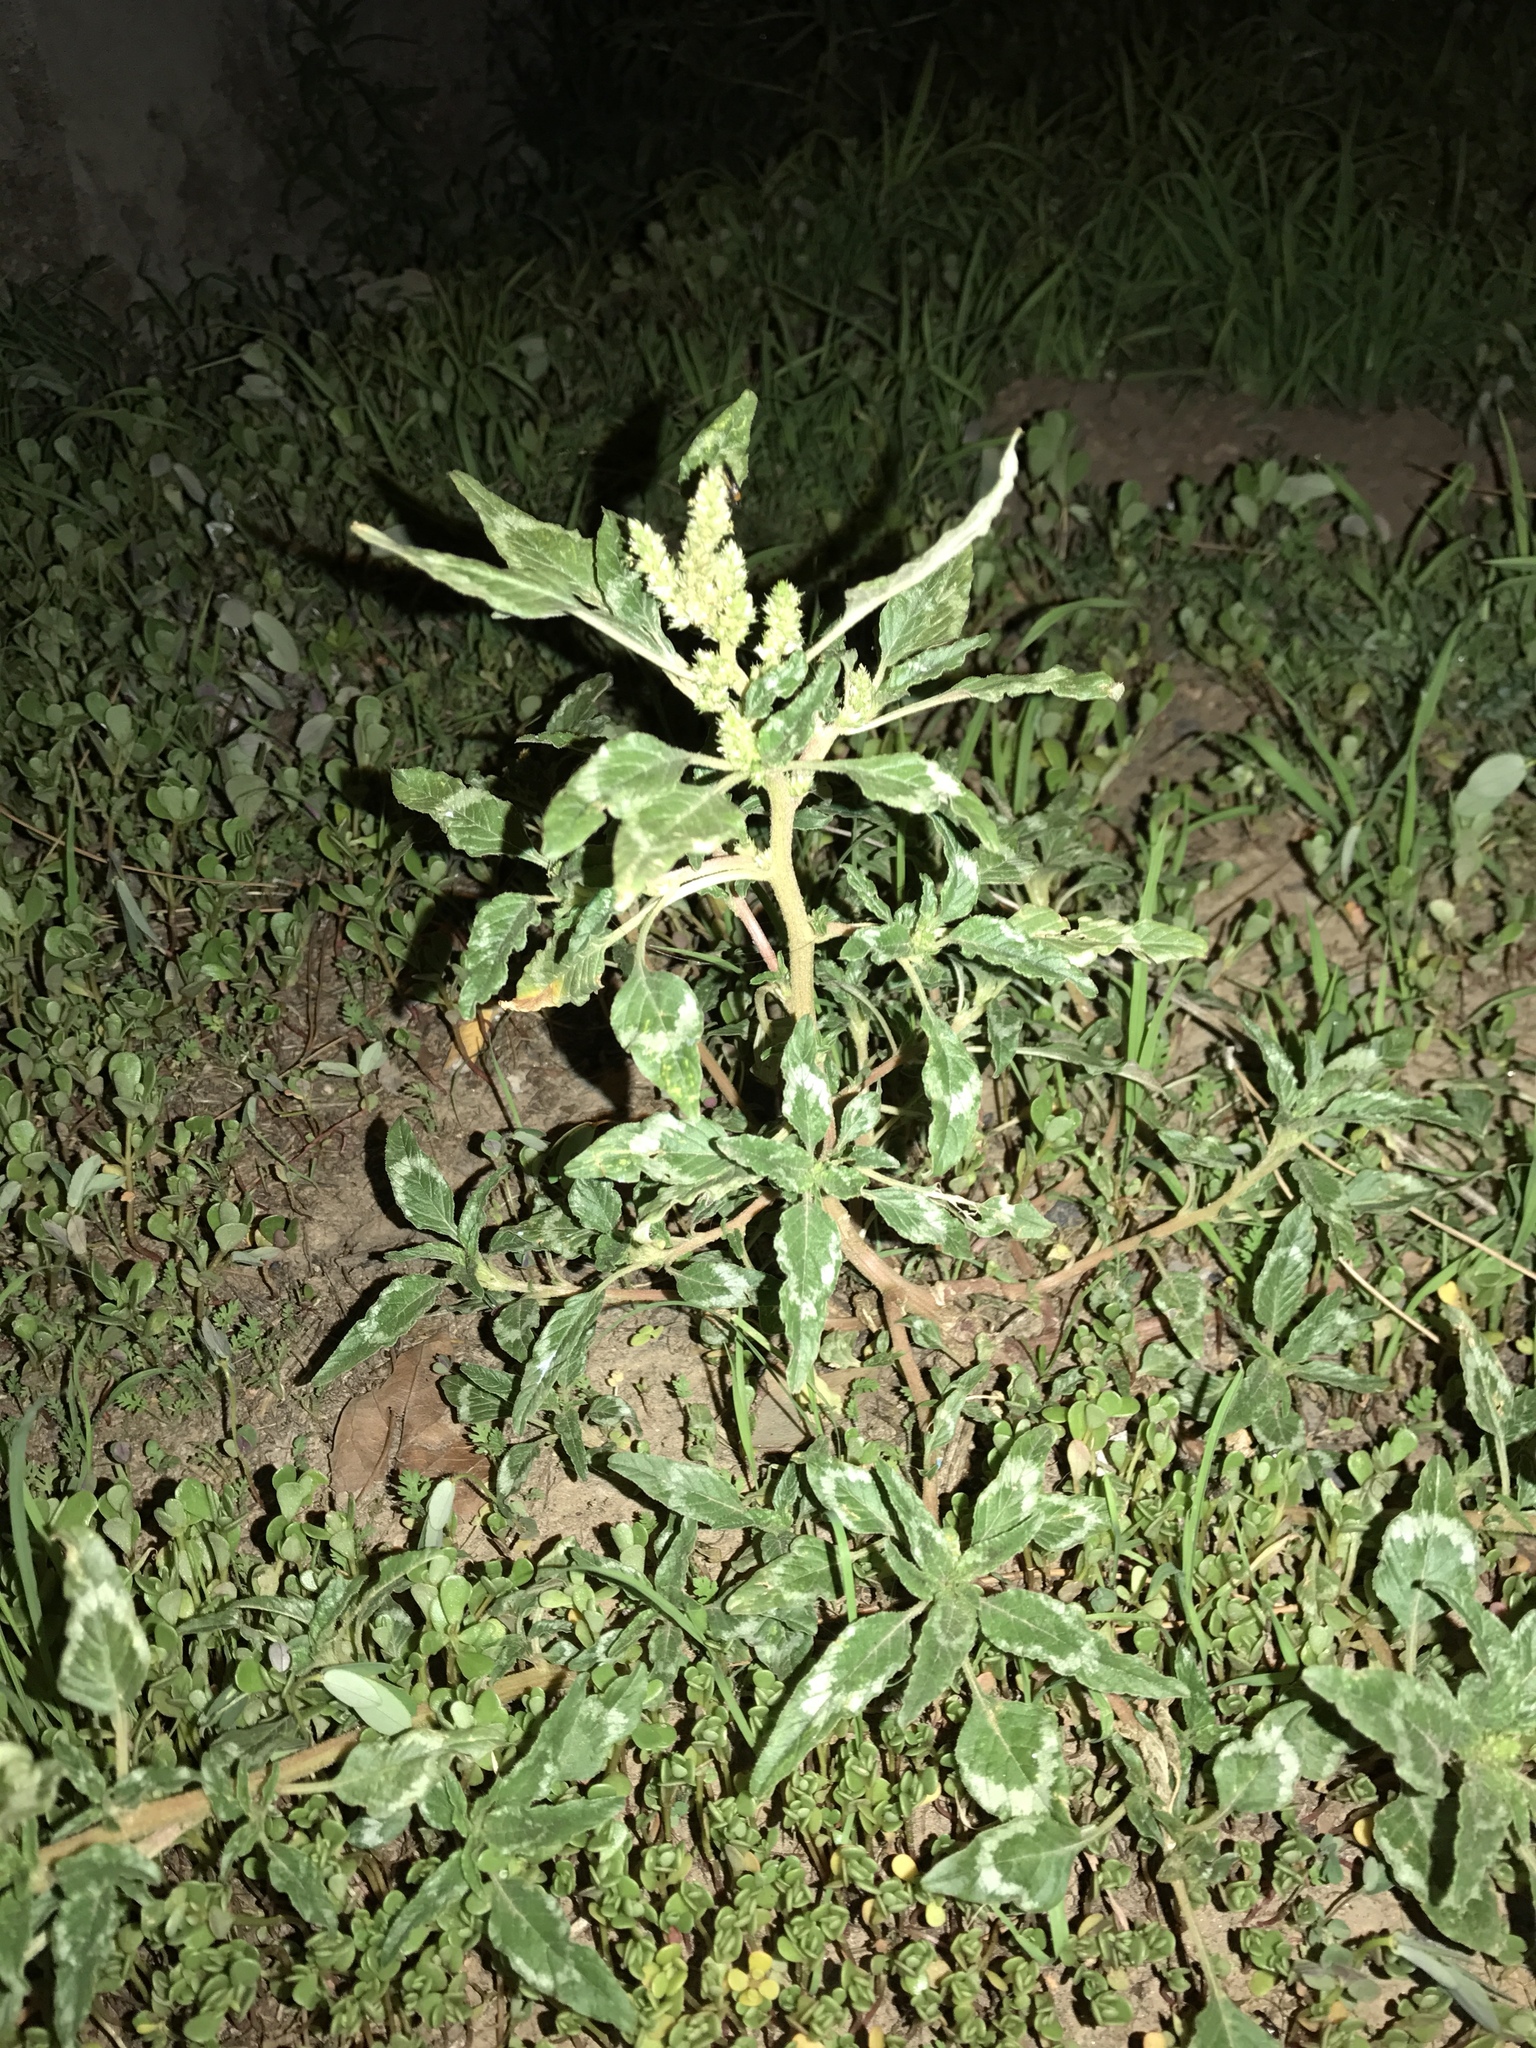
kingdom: Plantae
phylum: Tracheophyta
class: Magnoliopsida
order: Caryophyllales
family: Amaranthaceae
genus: Amaranthus
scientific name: Amaranthus palmeri
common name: Dioecious amaranth
